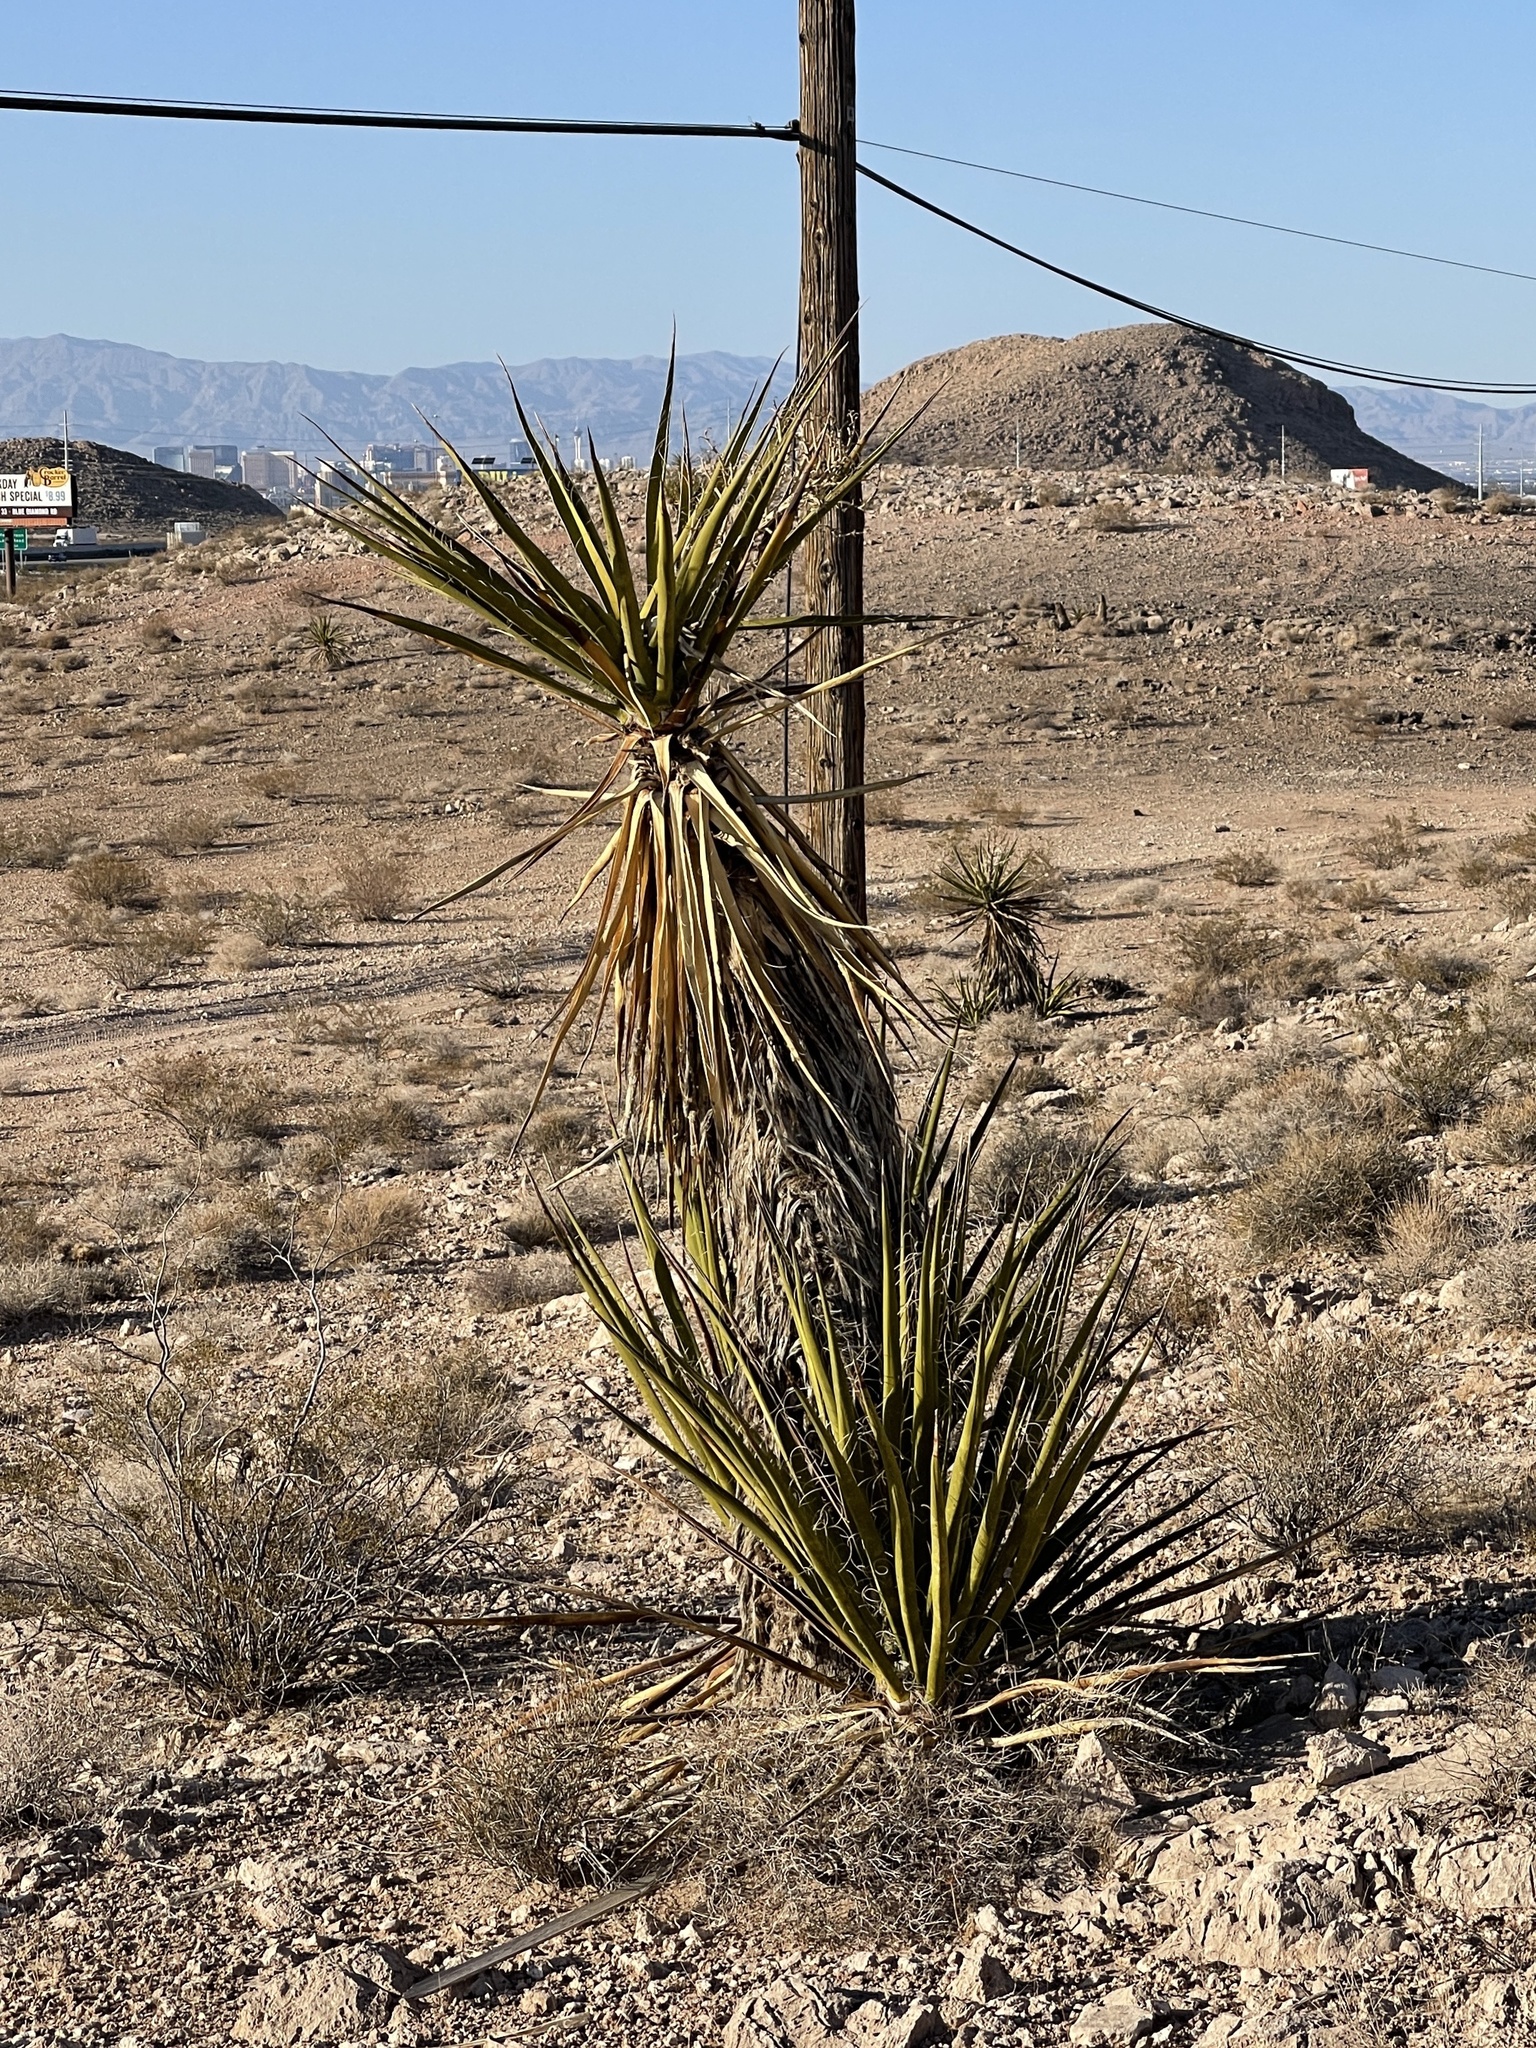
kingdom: Plantae
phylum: Tracheophyta
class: Liliopsida
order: Asparagales
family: Asparagaceae
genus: Yucca
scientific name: Yucca schidigera
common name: Mojave yucca
